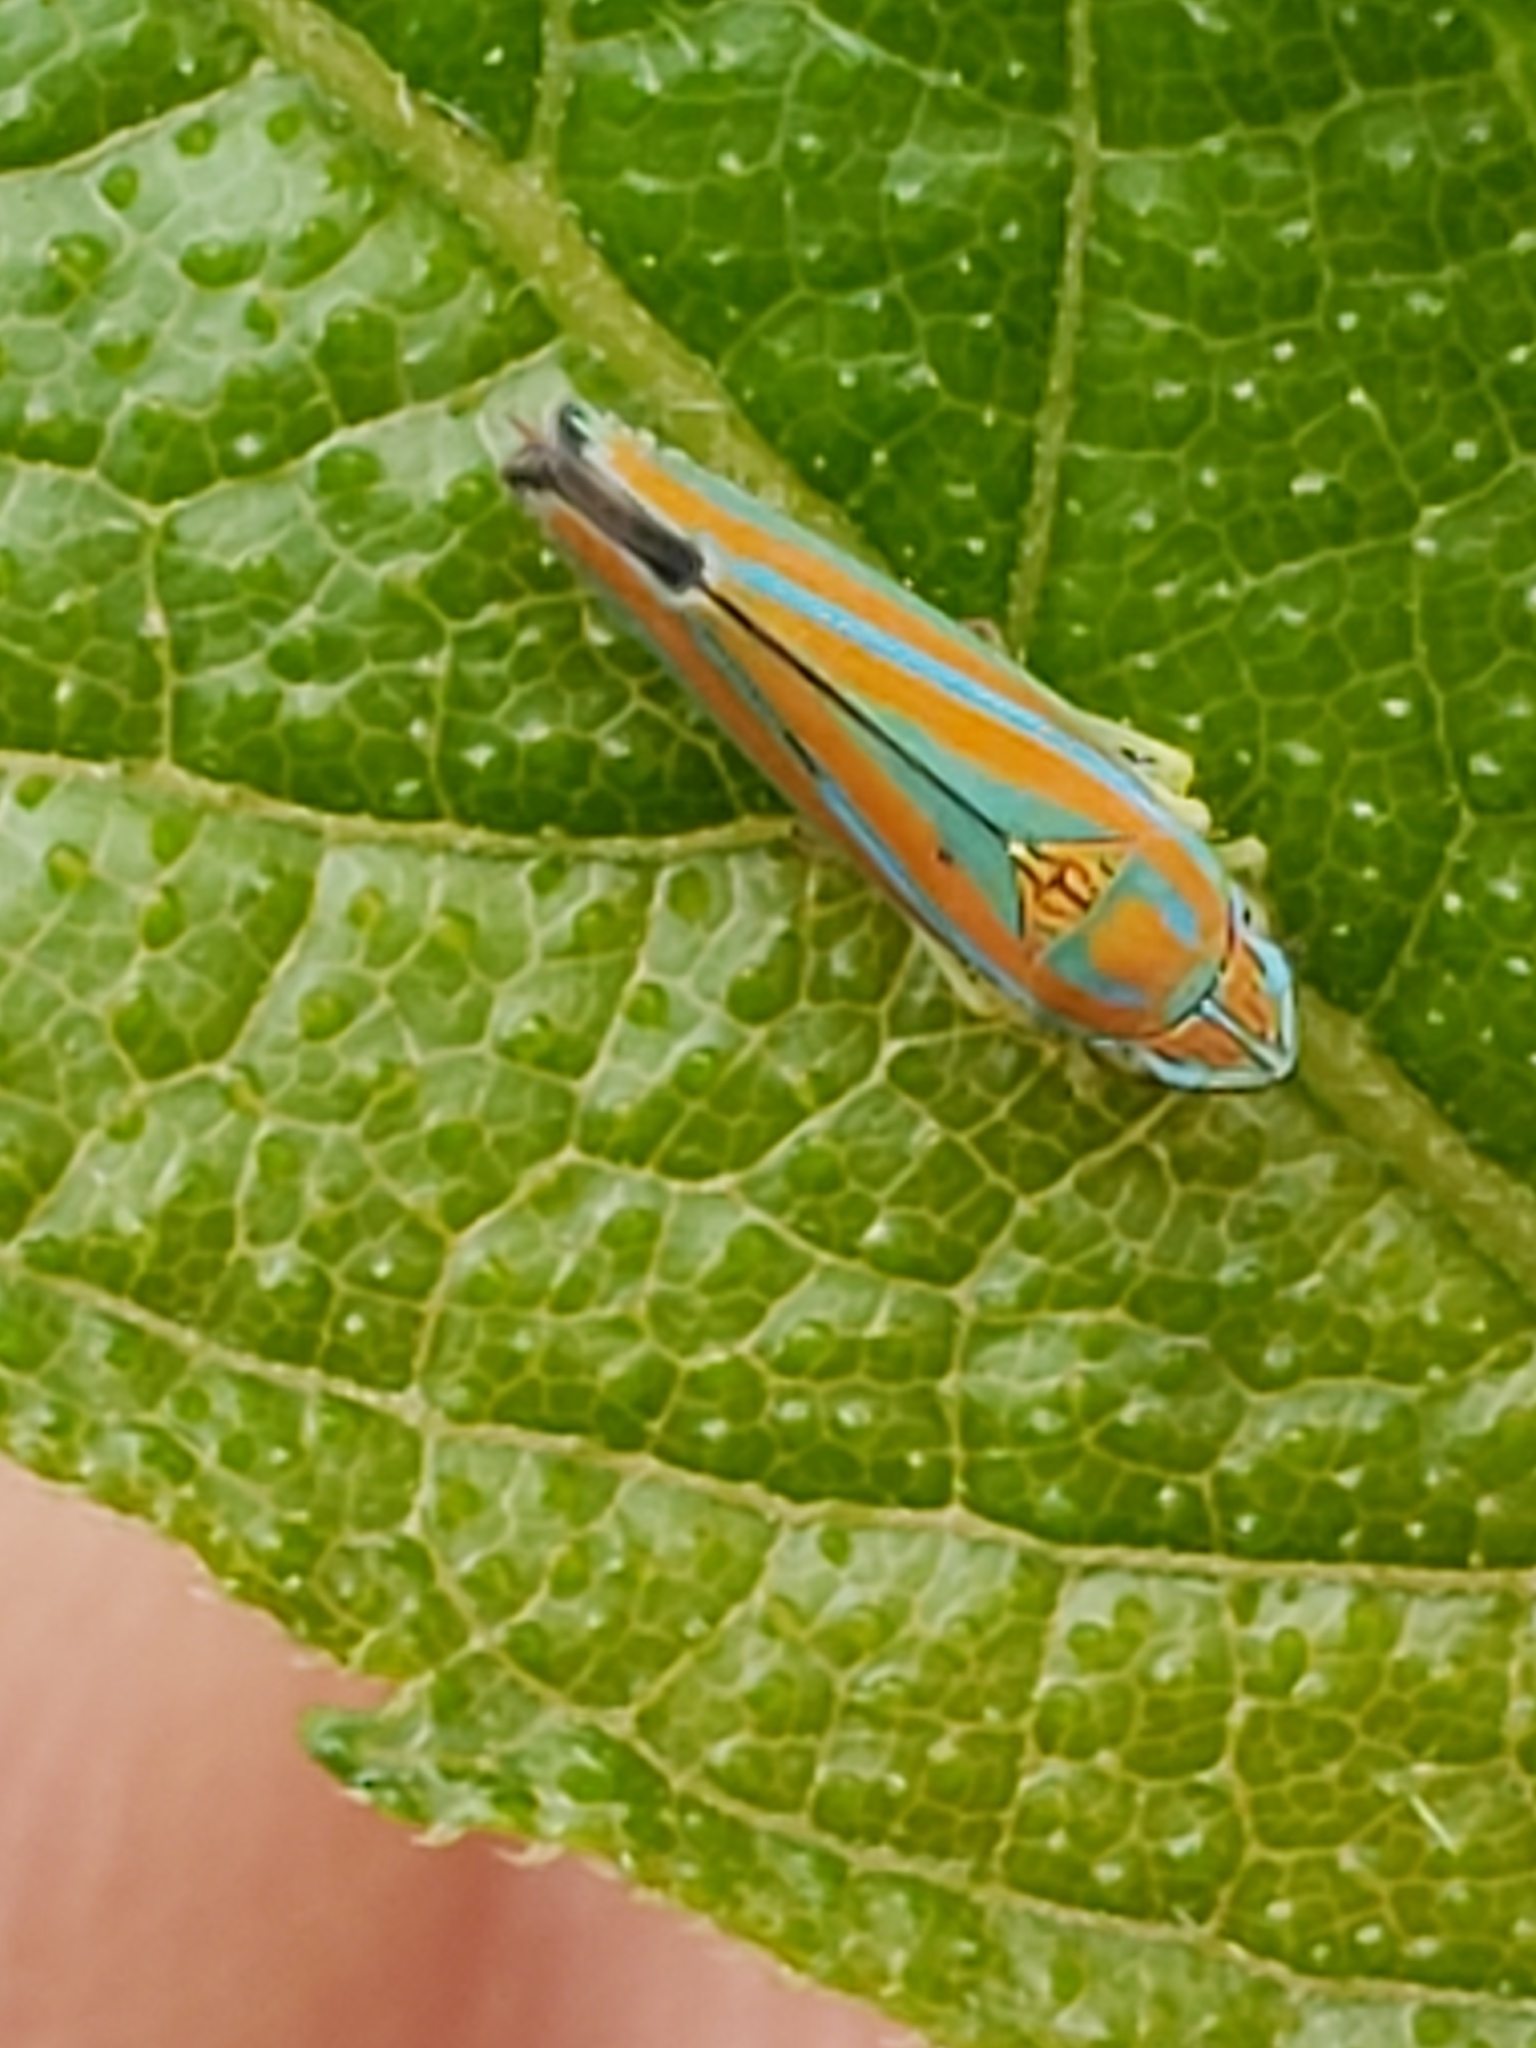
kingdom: Animalia
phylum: Arthropoda
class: Insecta
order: Hemiptera
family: Cicadellidae
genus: Graphocephala
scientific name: Graphocephala versuta
